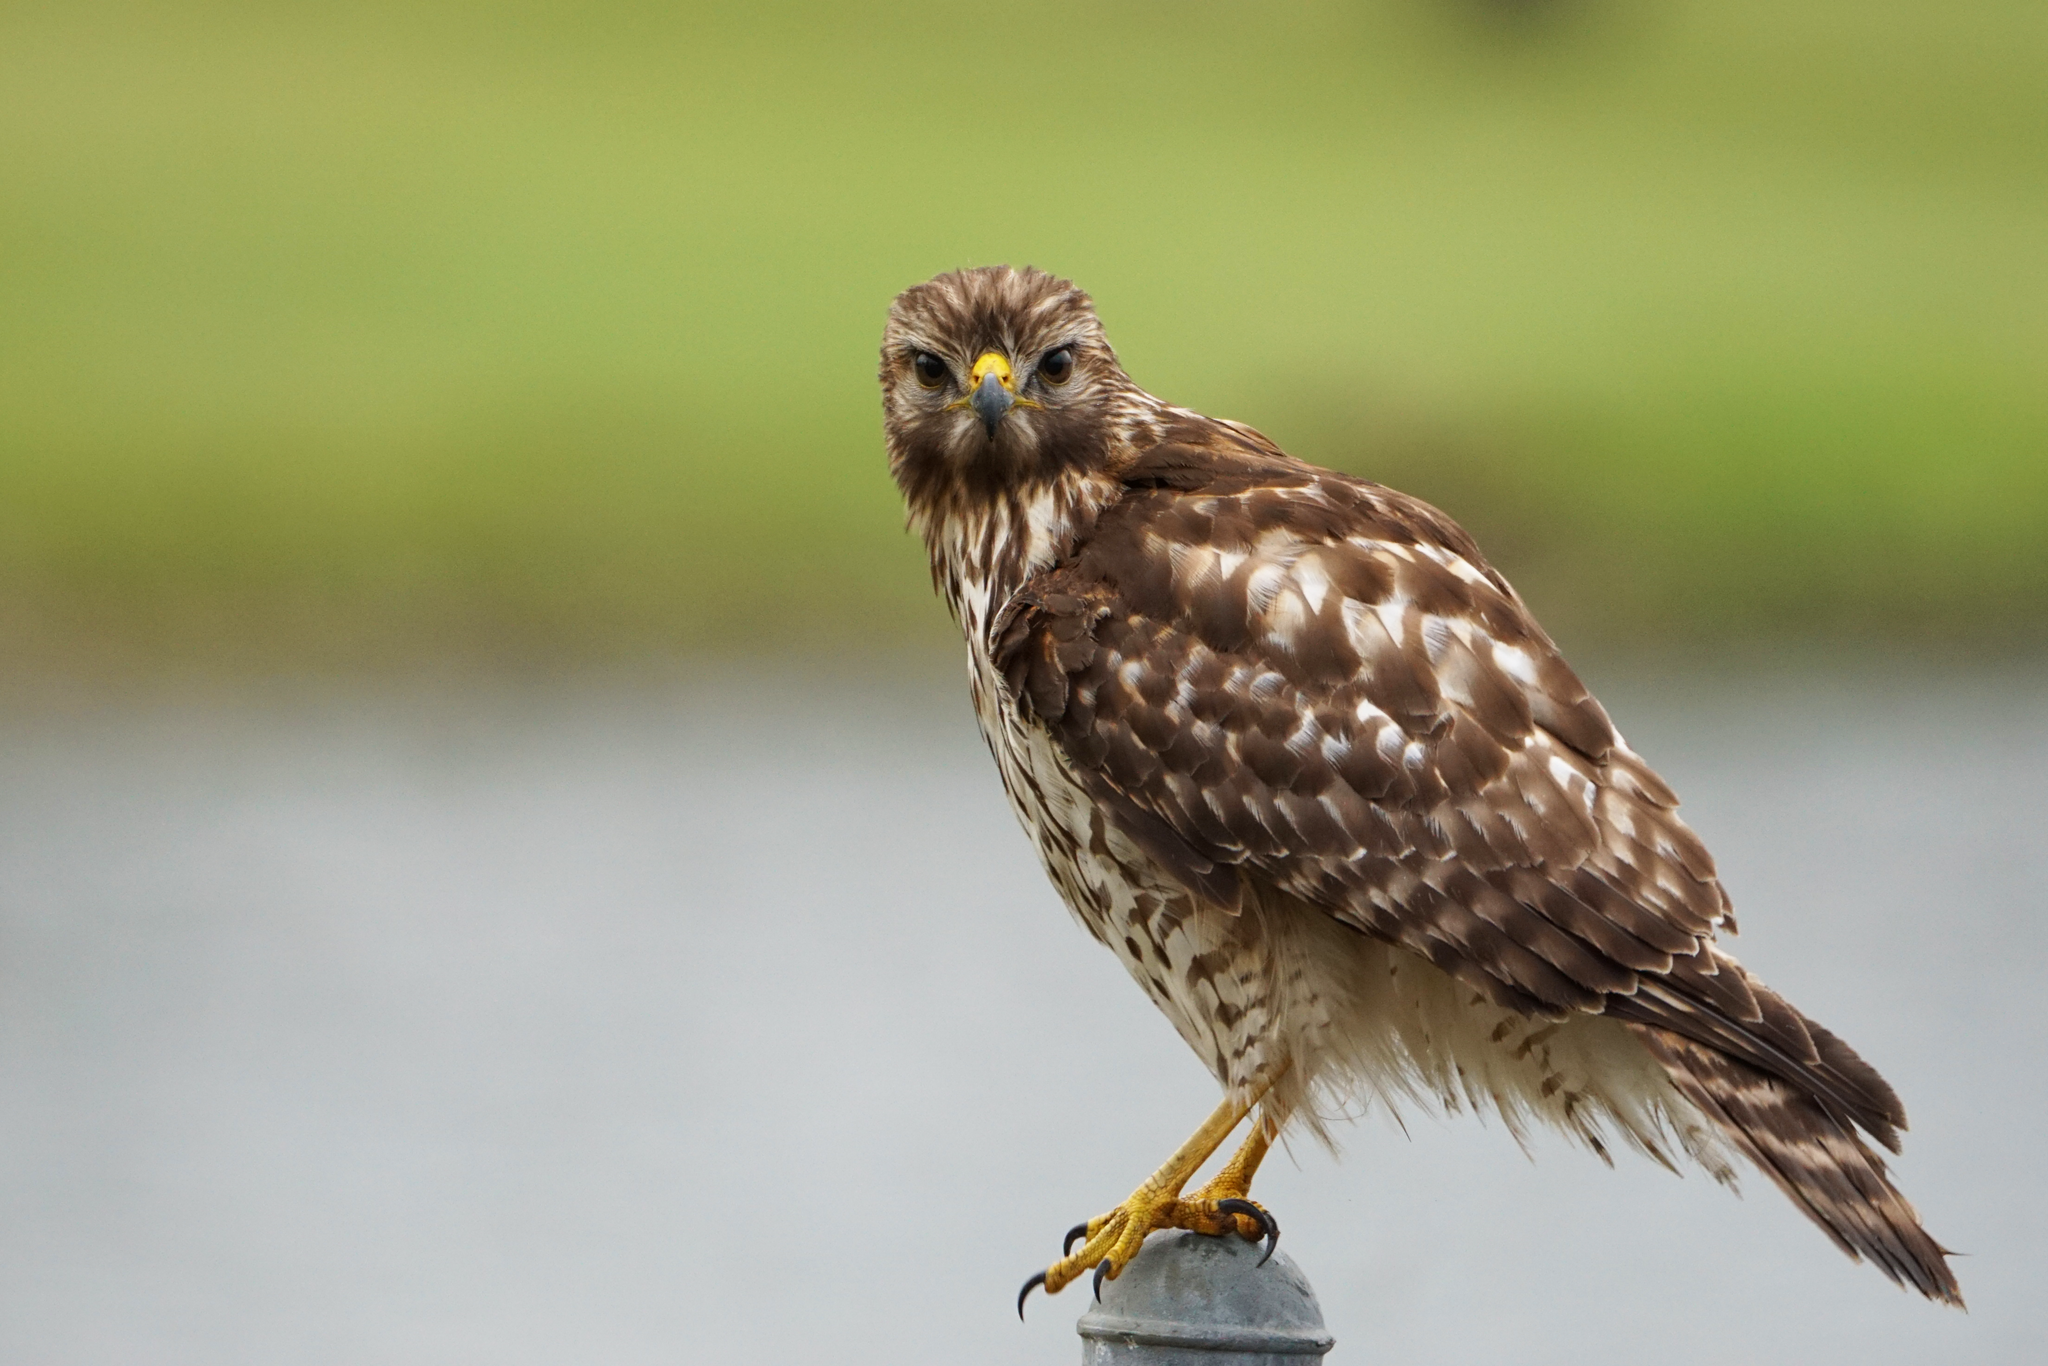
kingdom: Animalia
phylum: Chordata
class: Aves
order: Accipitriformes
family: Accipitridae
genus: Buteo
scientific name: Buteo lineatus
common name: Red-shouldered hawk
